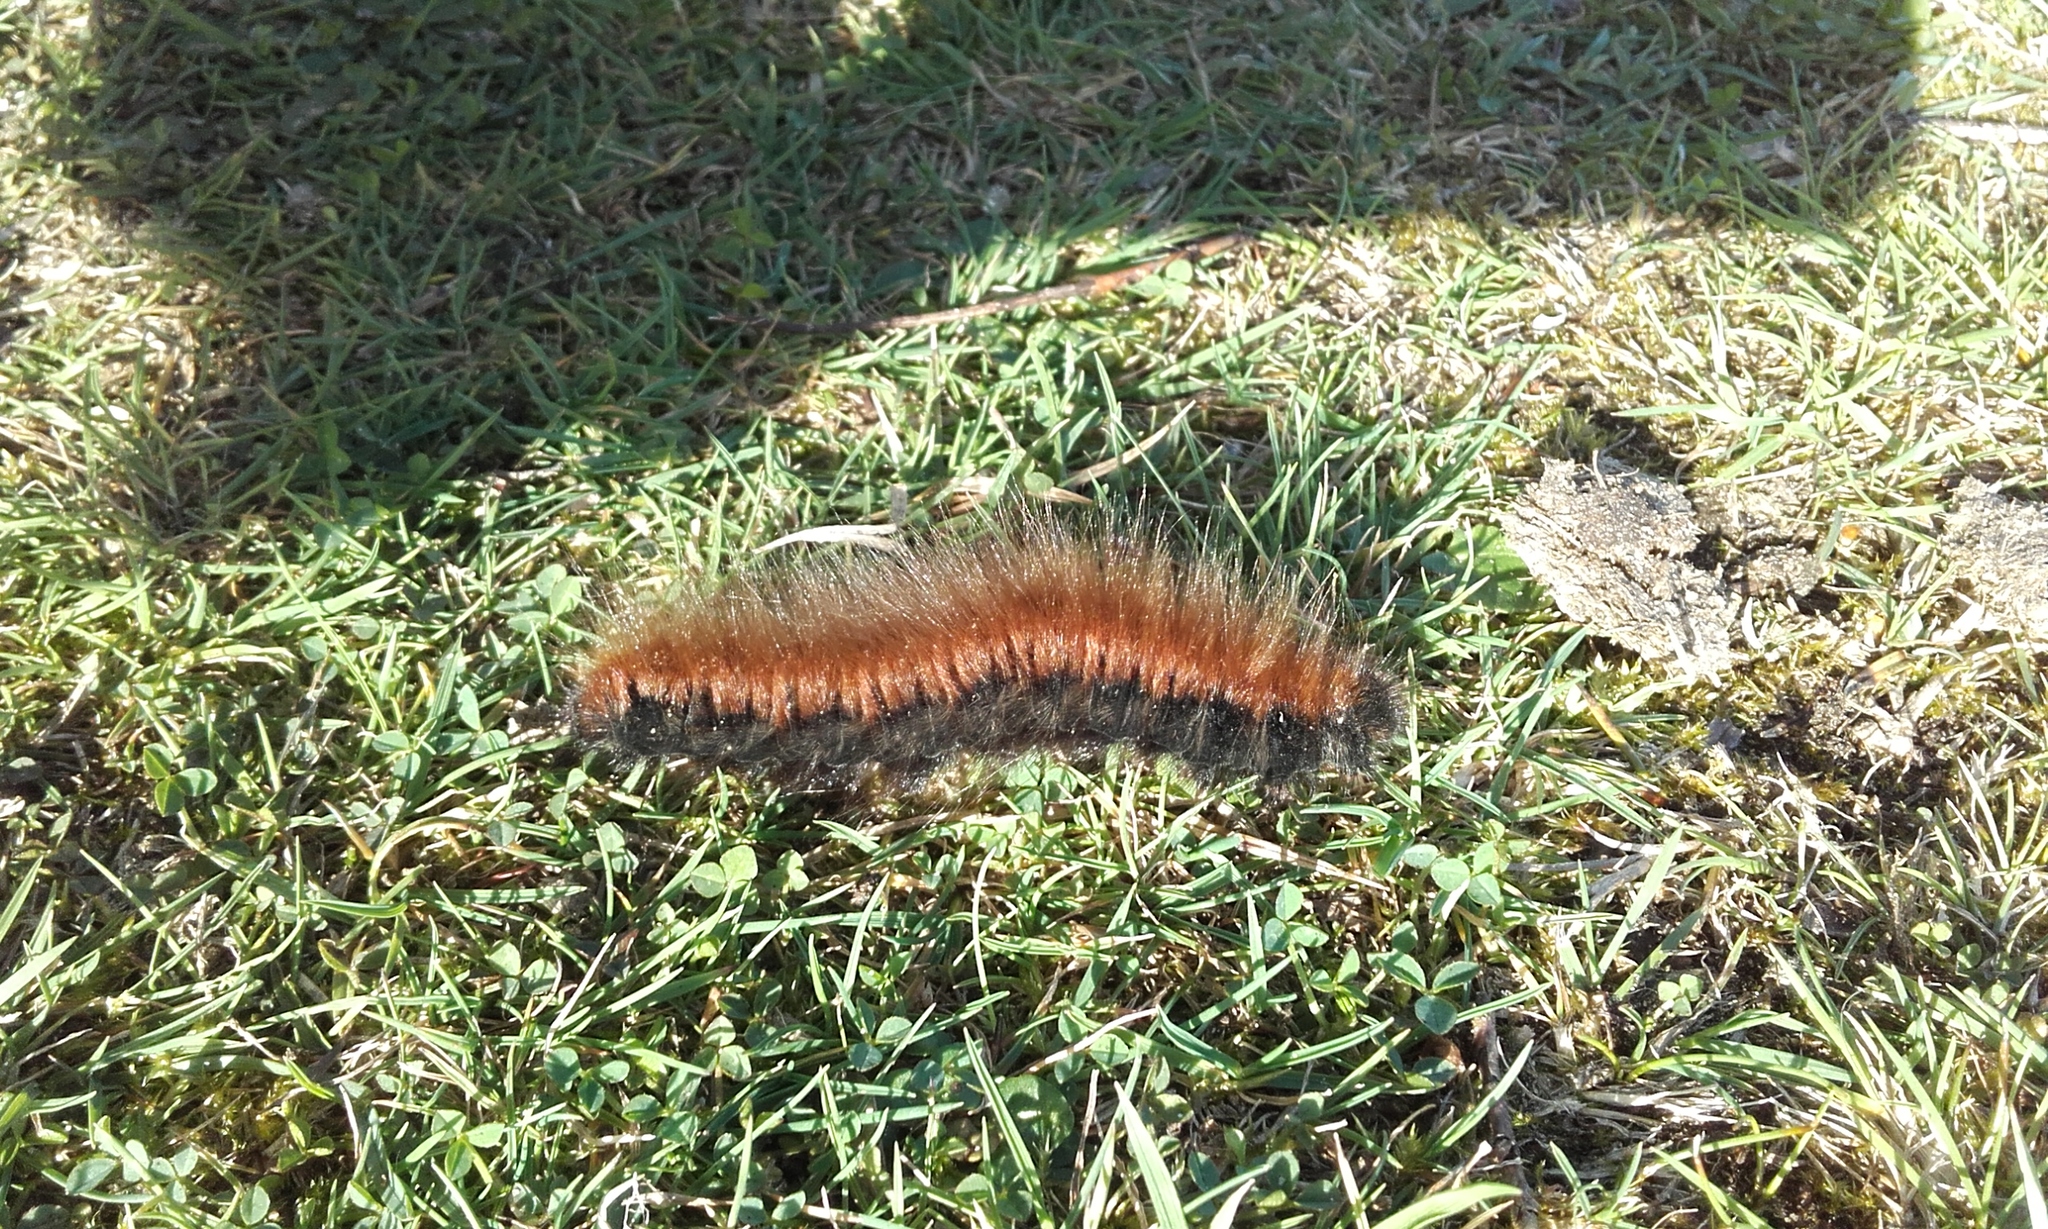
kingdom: Animalia
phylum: Arthropoda
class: Insecta
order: Lepidoptera
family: Lasiocampidae
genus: Macrothylacia
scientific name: Macrothylacia rubi
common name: Fox moth
